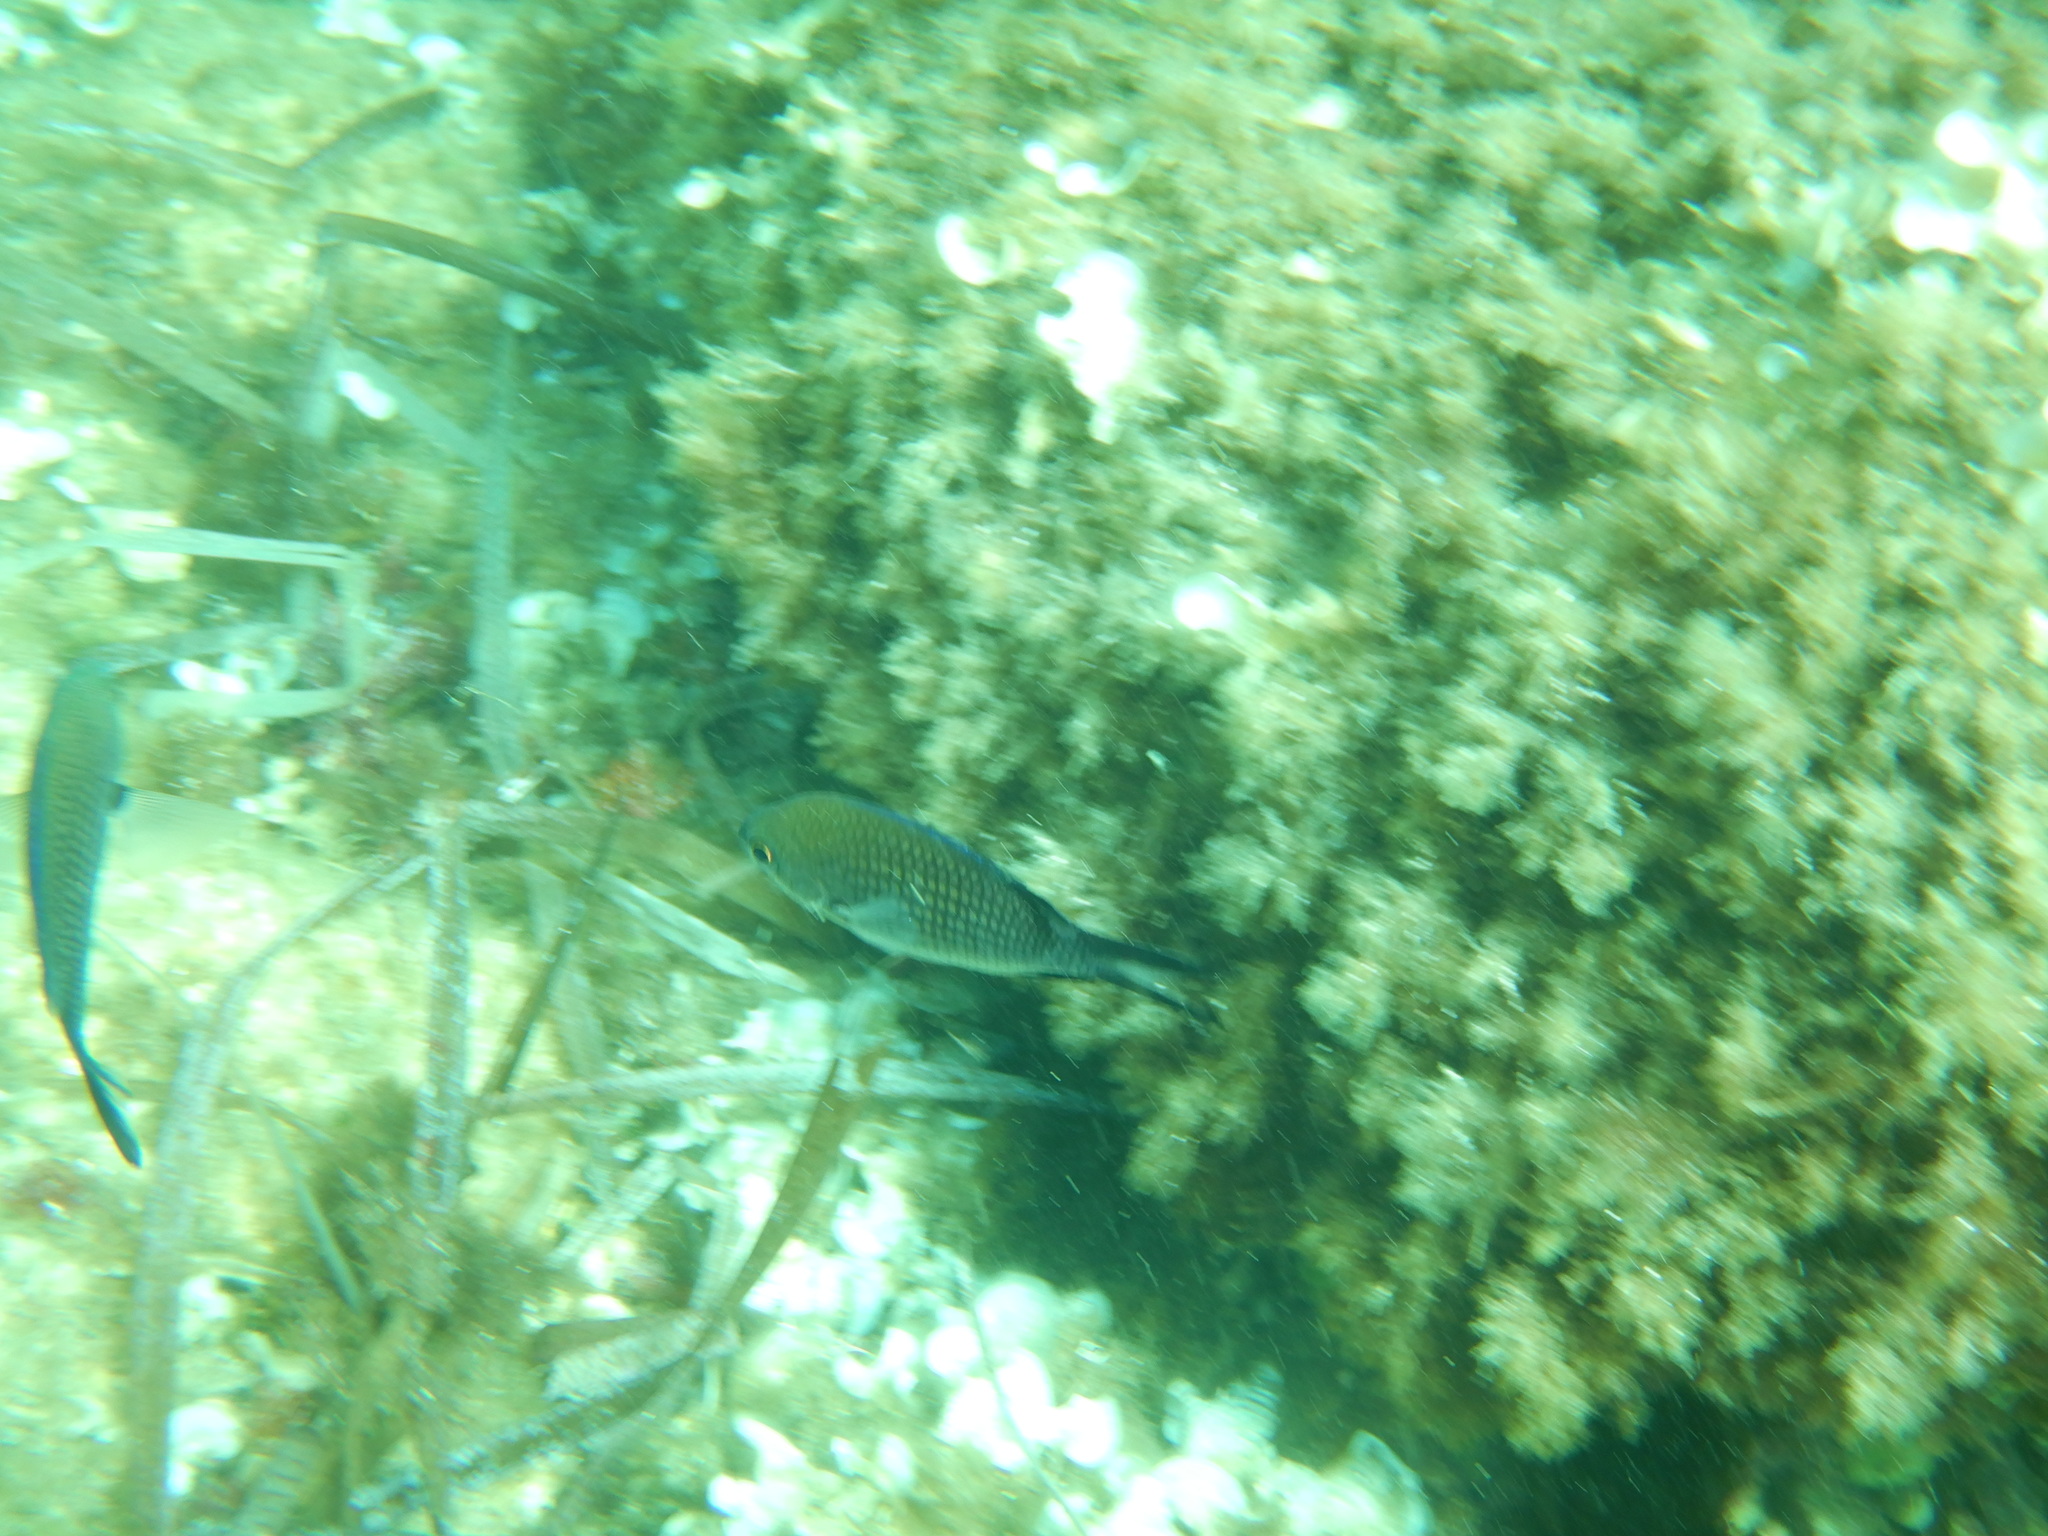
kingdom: Animalia
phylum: Chordata
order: Perciformes
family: Pomacentridae
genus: Chromis
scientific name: Chromis chromis
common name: Damselfish
